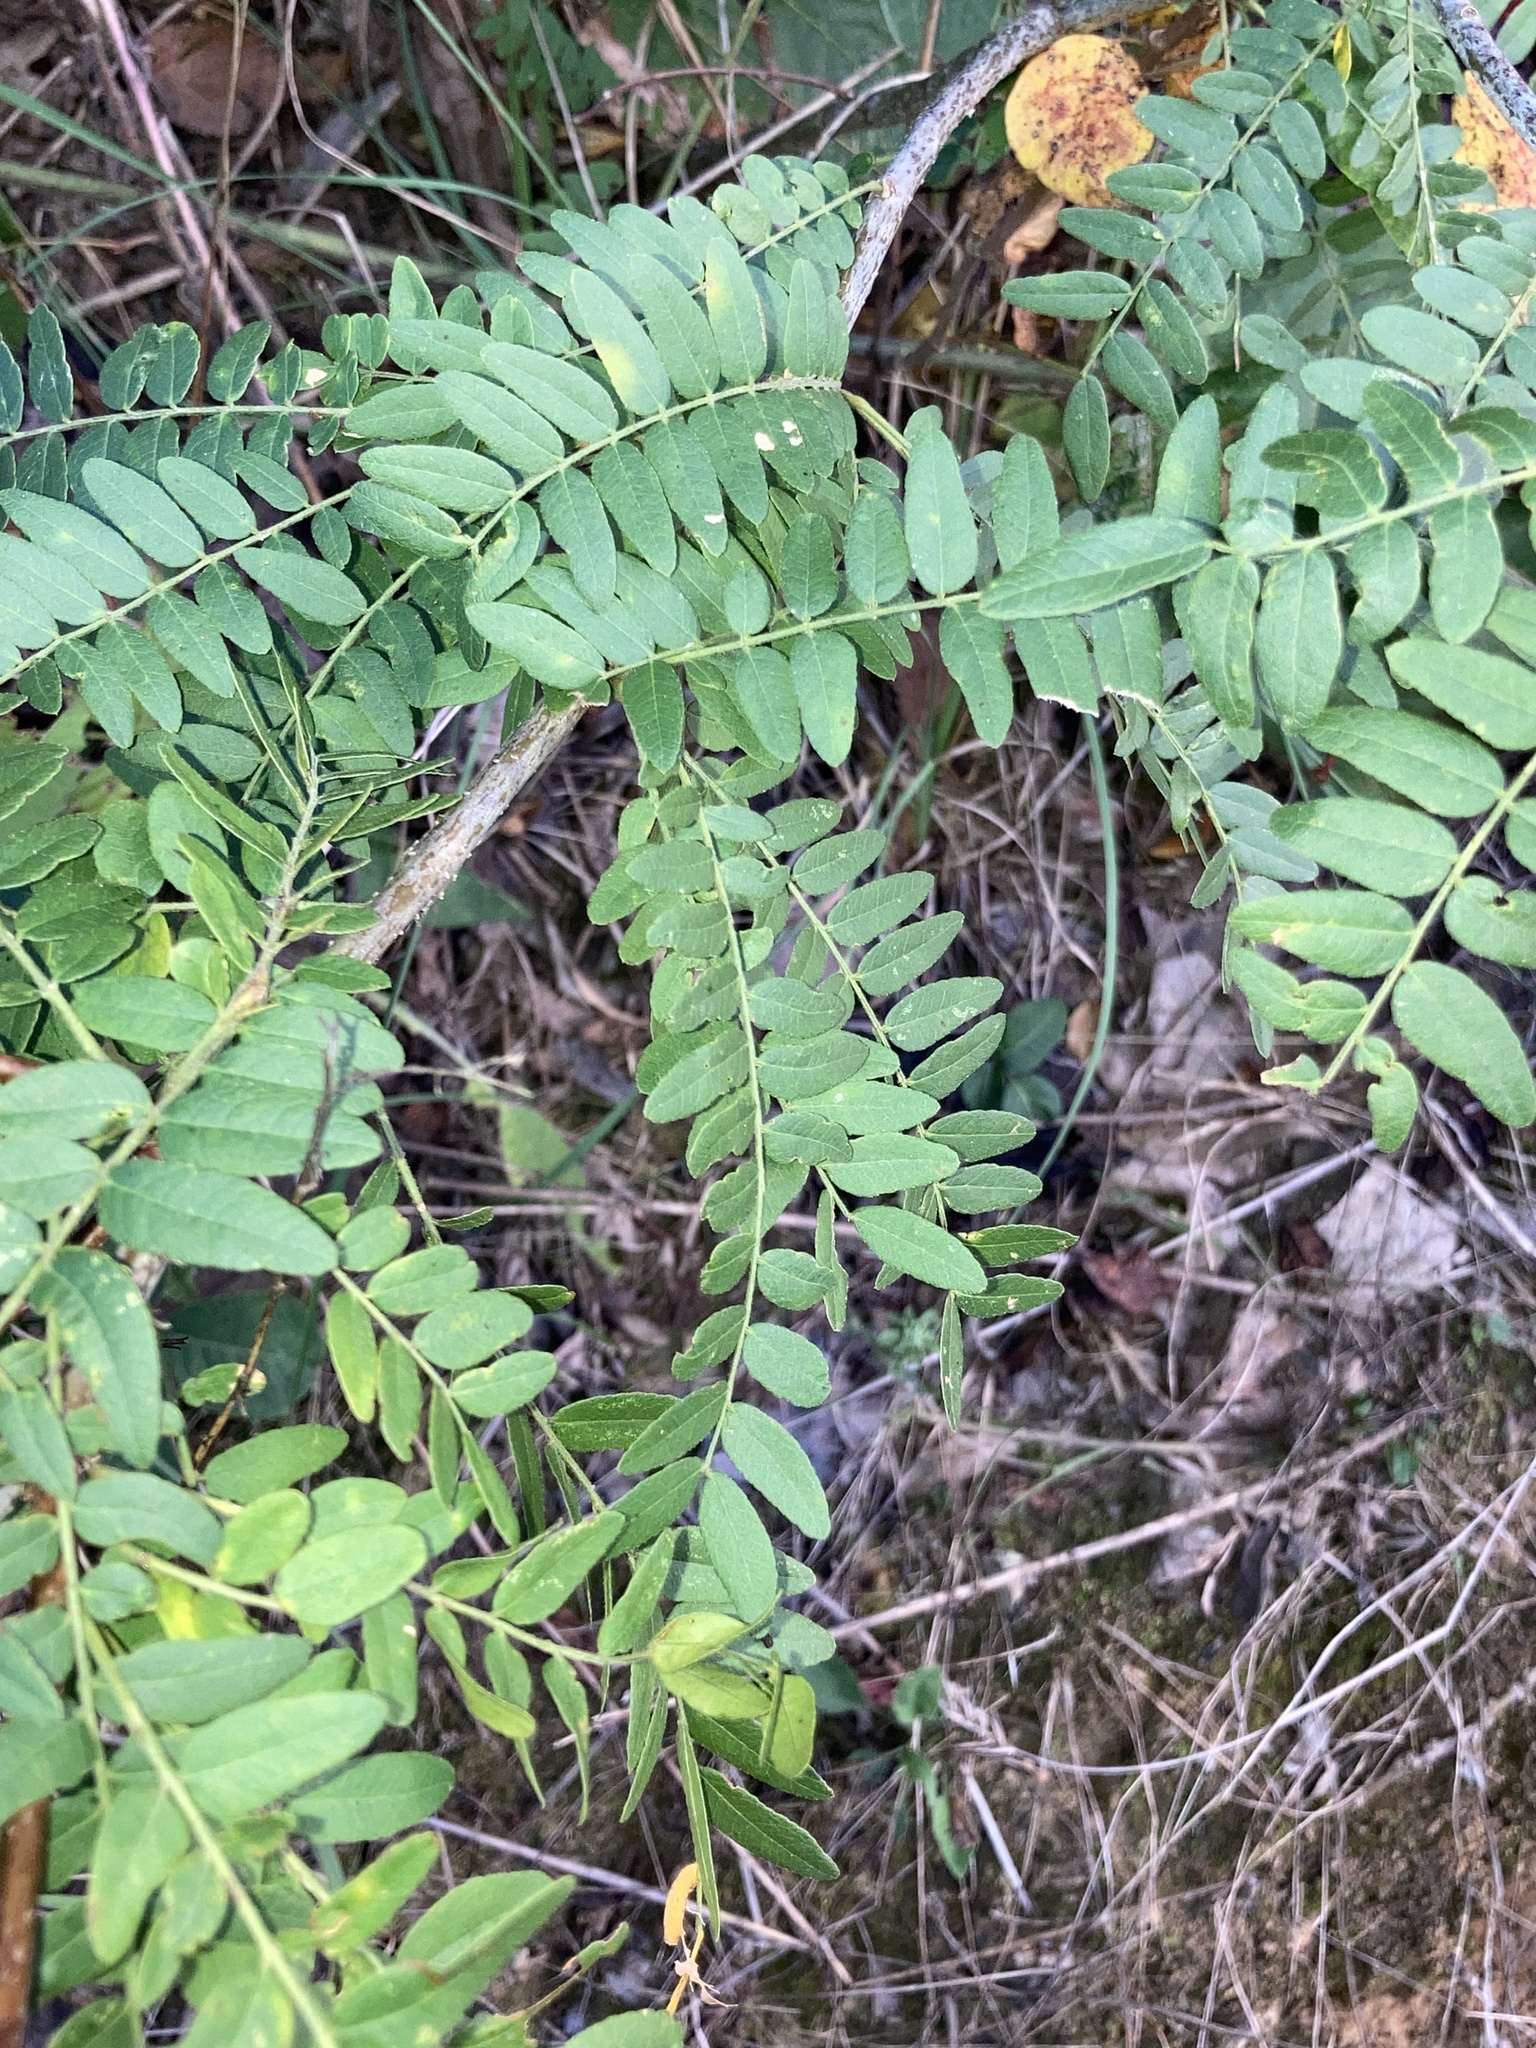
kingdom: Plantae
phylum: Tracheophyta
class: Magnoliopsida
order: Fabales
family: Fabaceae
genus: Gleditsia
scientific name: Gleditsia triacanthos
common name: Common honeylocust
